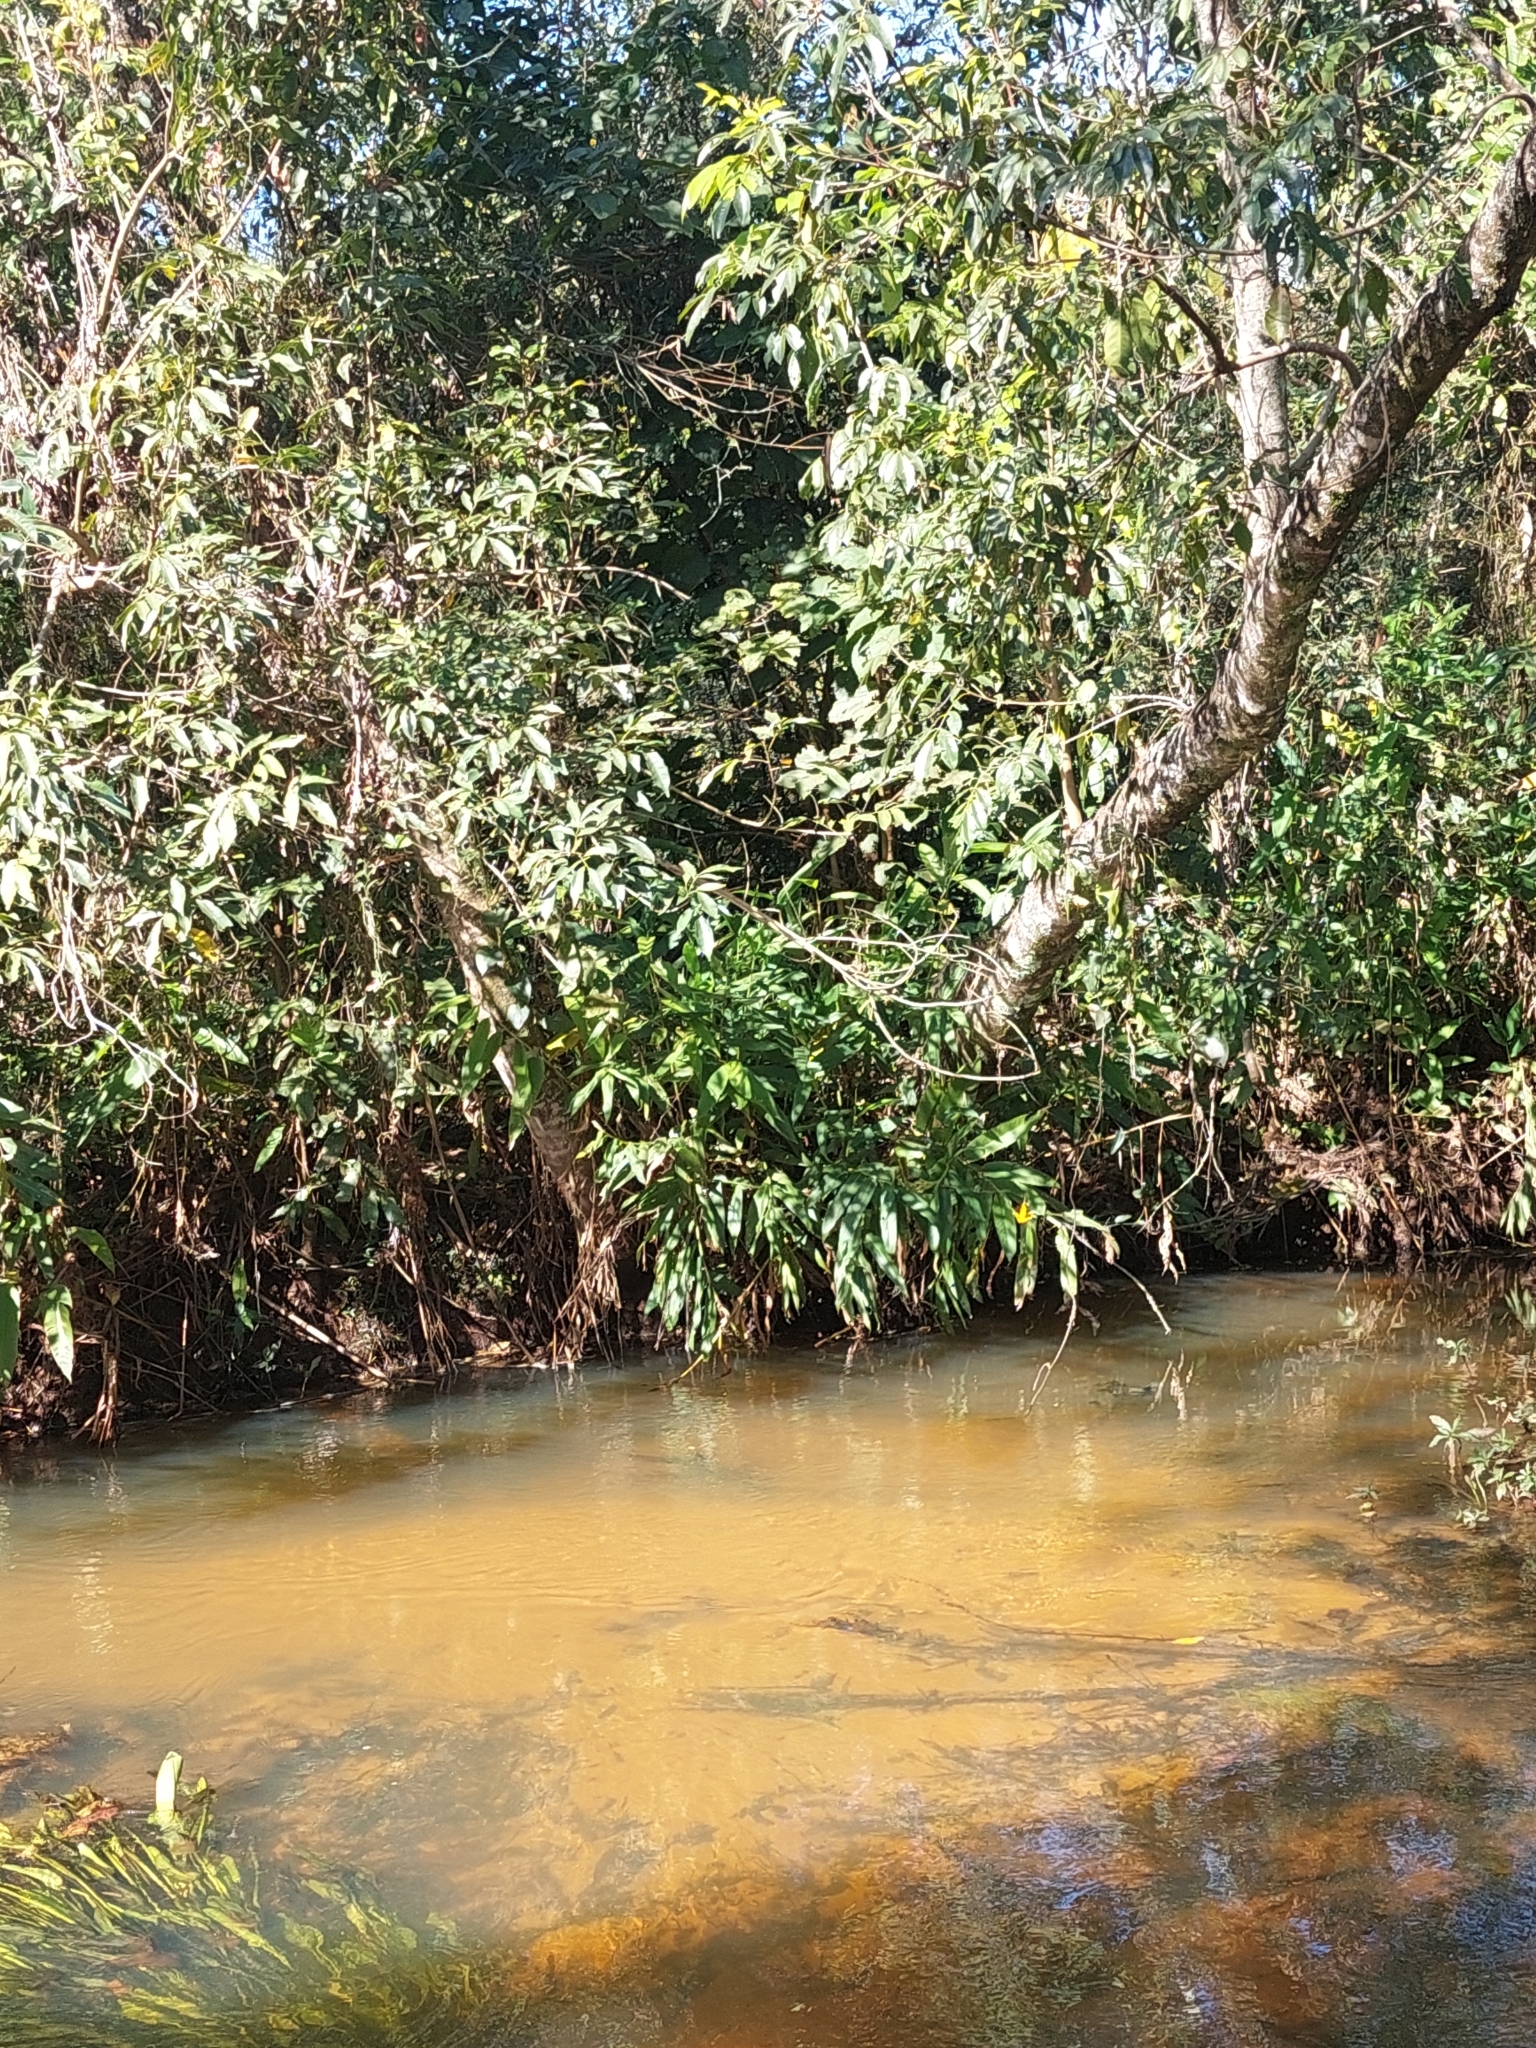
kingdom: Plantae
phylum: Tracheophyta
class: Liliopsida
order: Zingiberales
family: Zingiberaceae
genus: Hedychium
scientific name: Hedychium coronarium
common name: White garland-lily
